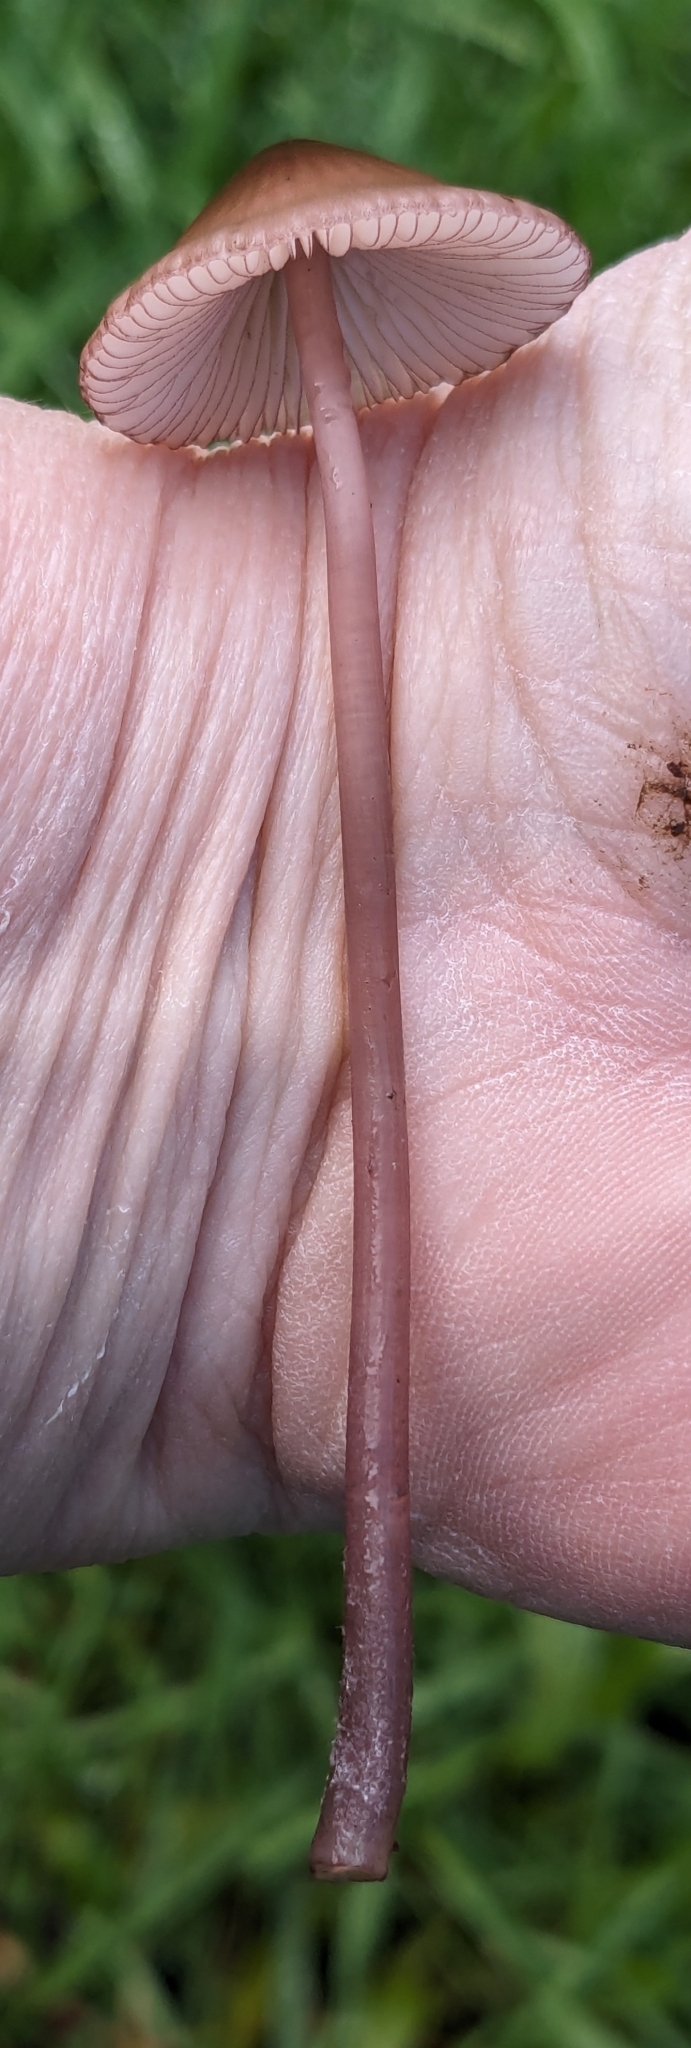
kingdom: Fungi
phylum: Basidiomycota
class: Agaricomycetes
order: Agaricales
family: Mycenaceae
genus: Mycena
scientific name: Mycena purpureofusca
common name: Purple edge bonnet
